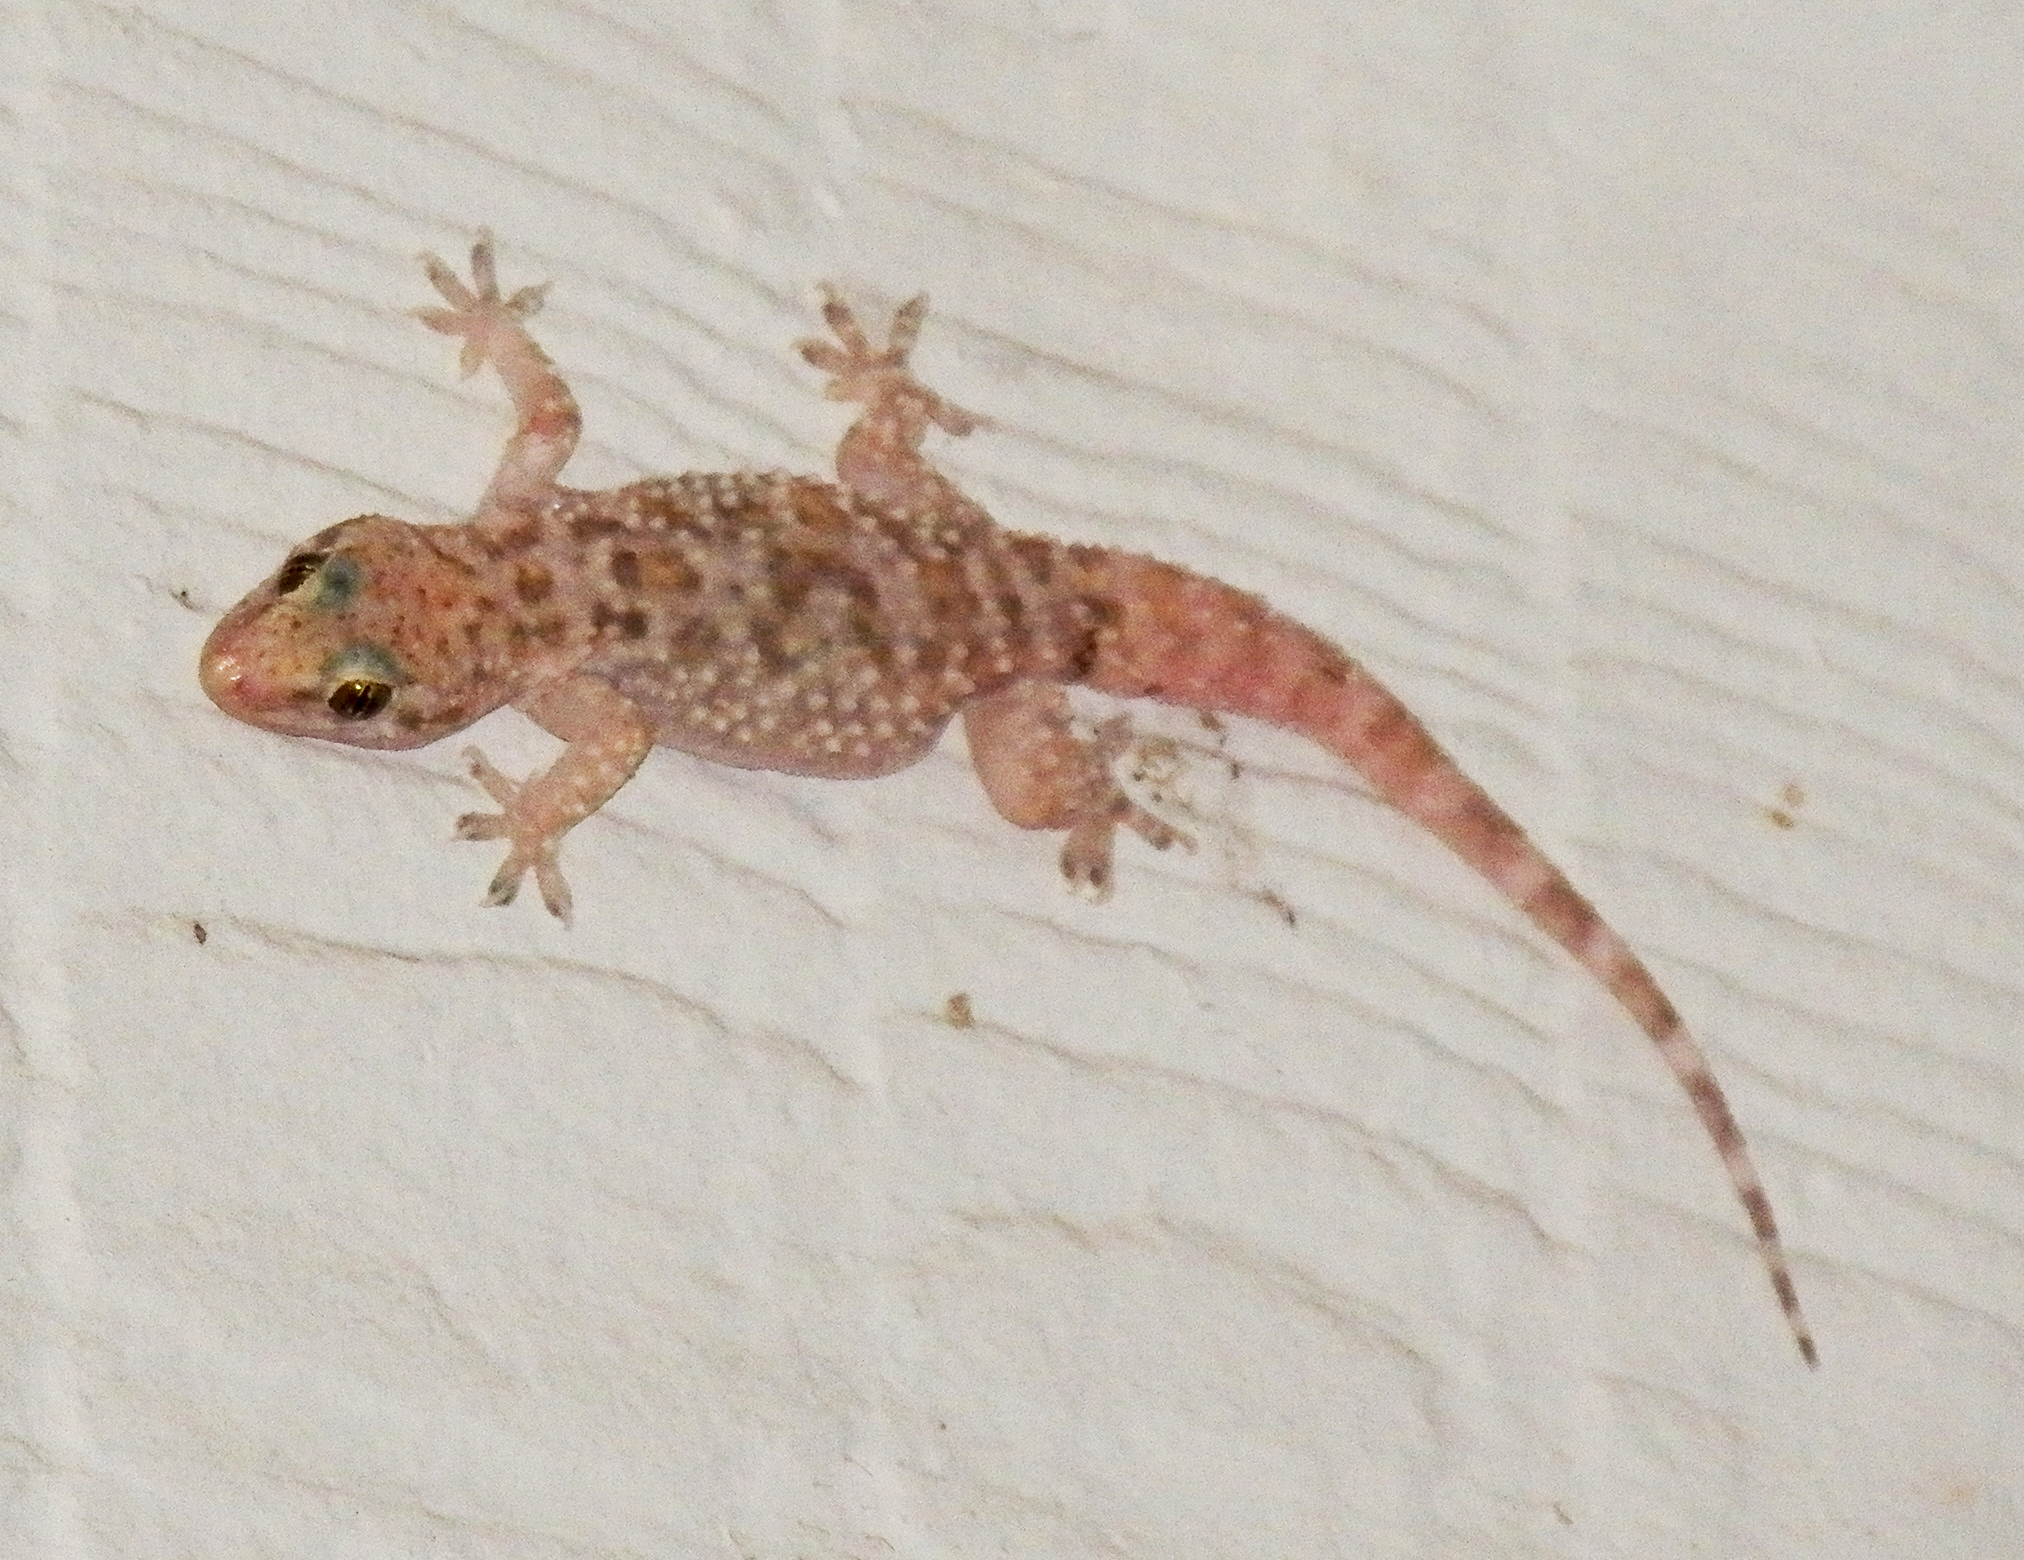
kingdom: Animalia
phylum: Chordata
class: Squamata
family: Gekkonidae
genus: Hemidactylus
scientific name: Hemidactylus turcicus
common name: Turkish gecko
